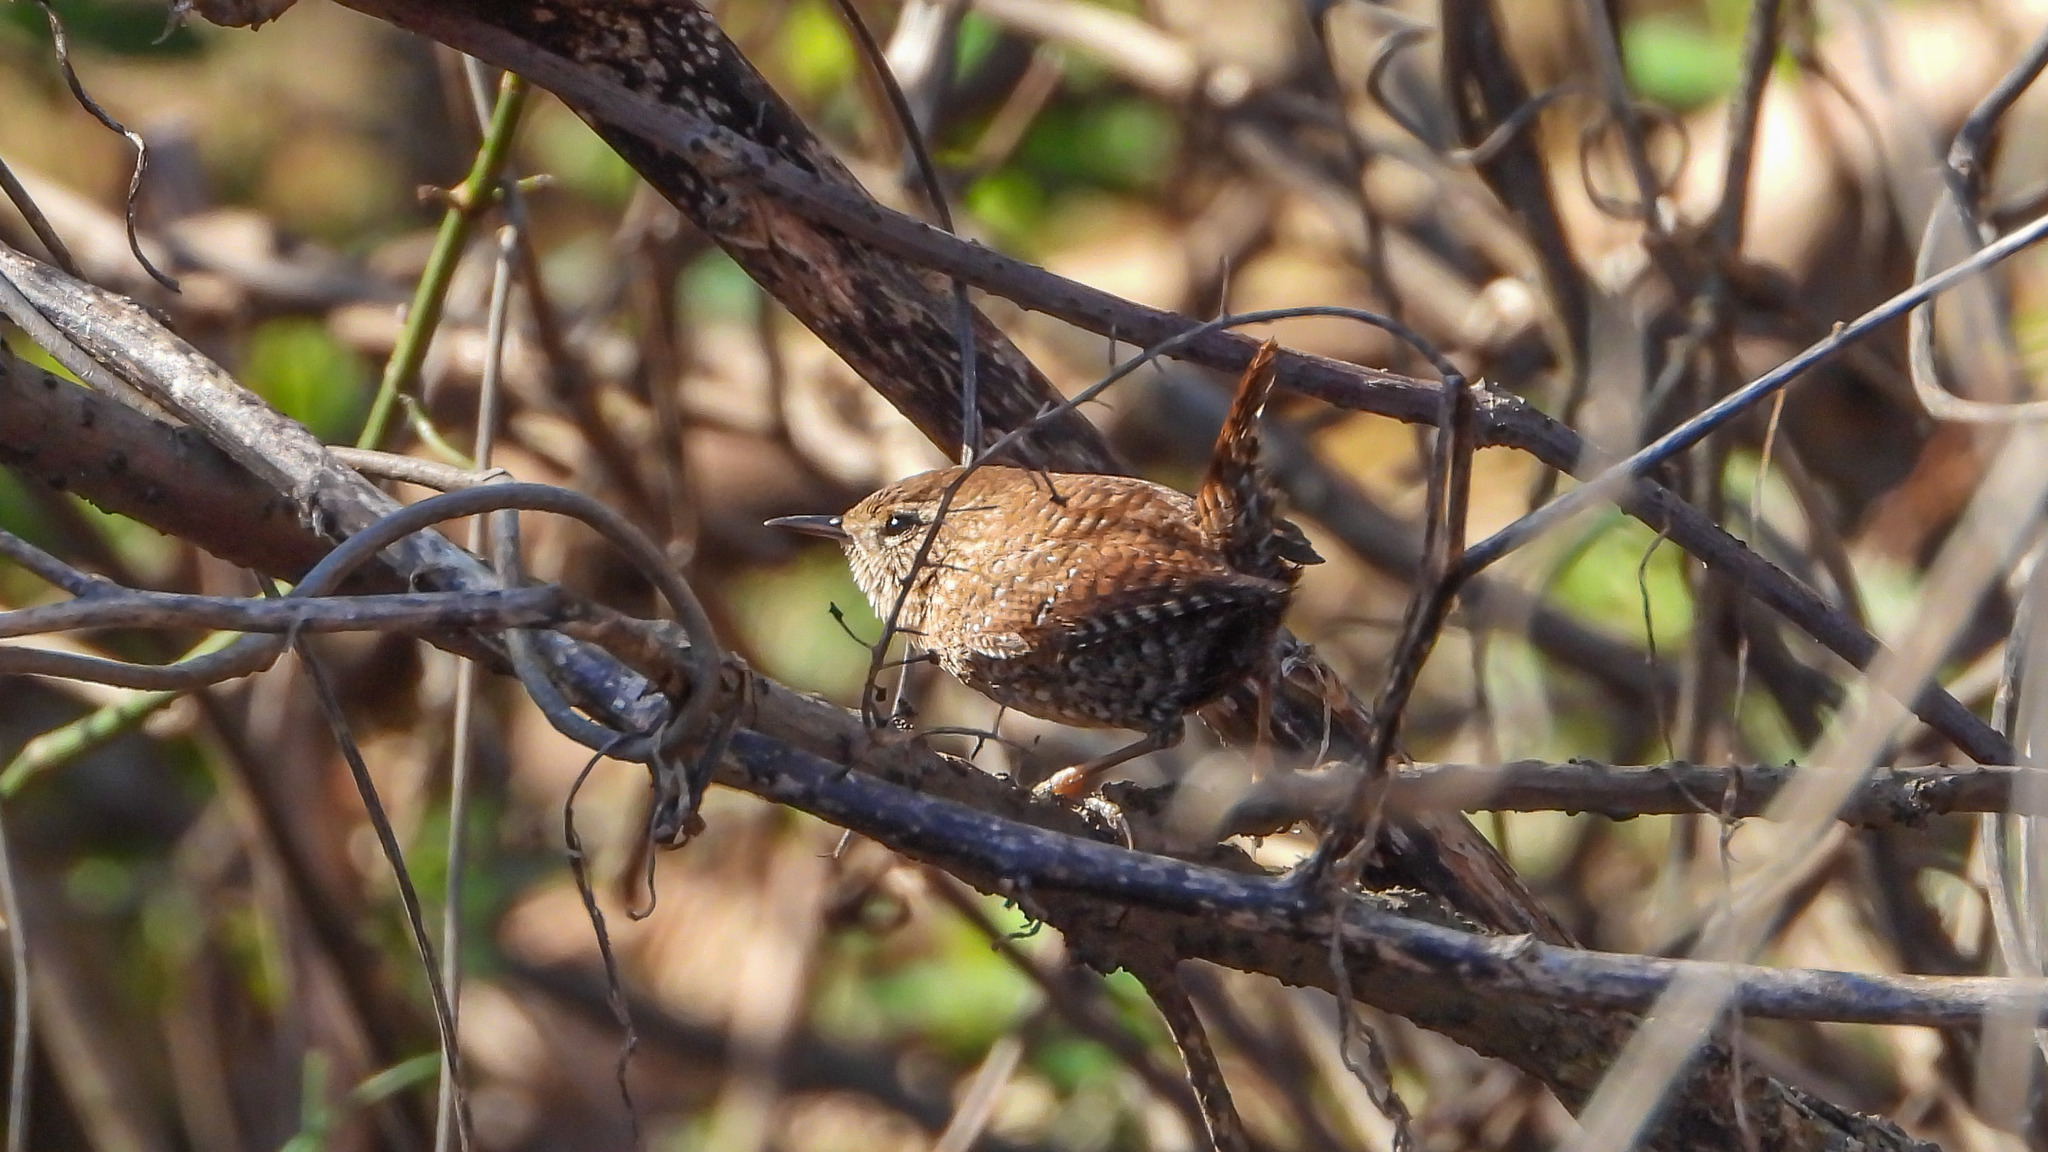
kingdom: Animalia
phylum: Chordata
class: Aves
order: Passeriformes
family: Troglodytidae
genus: Troglodytes
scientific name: Troglodytes hiemalis
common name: Winter wren
